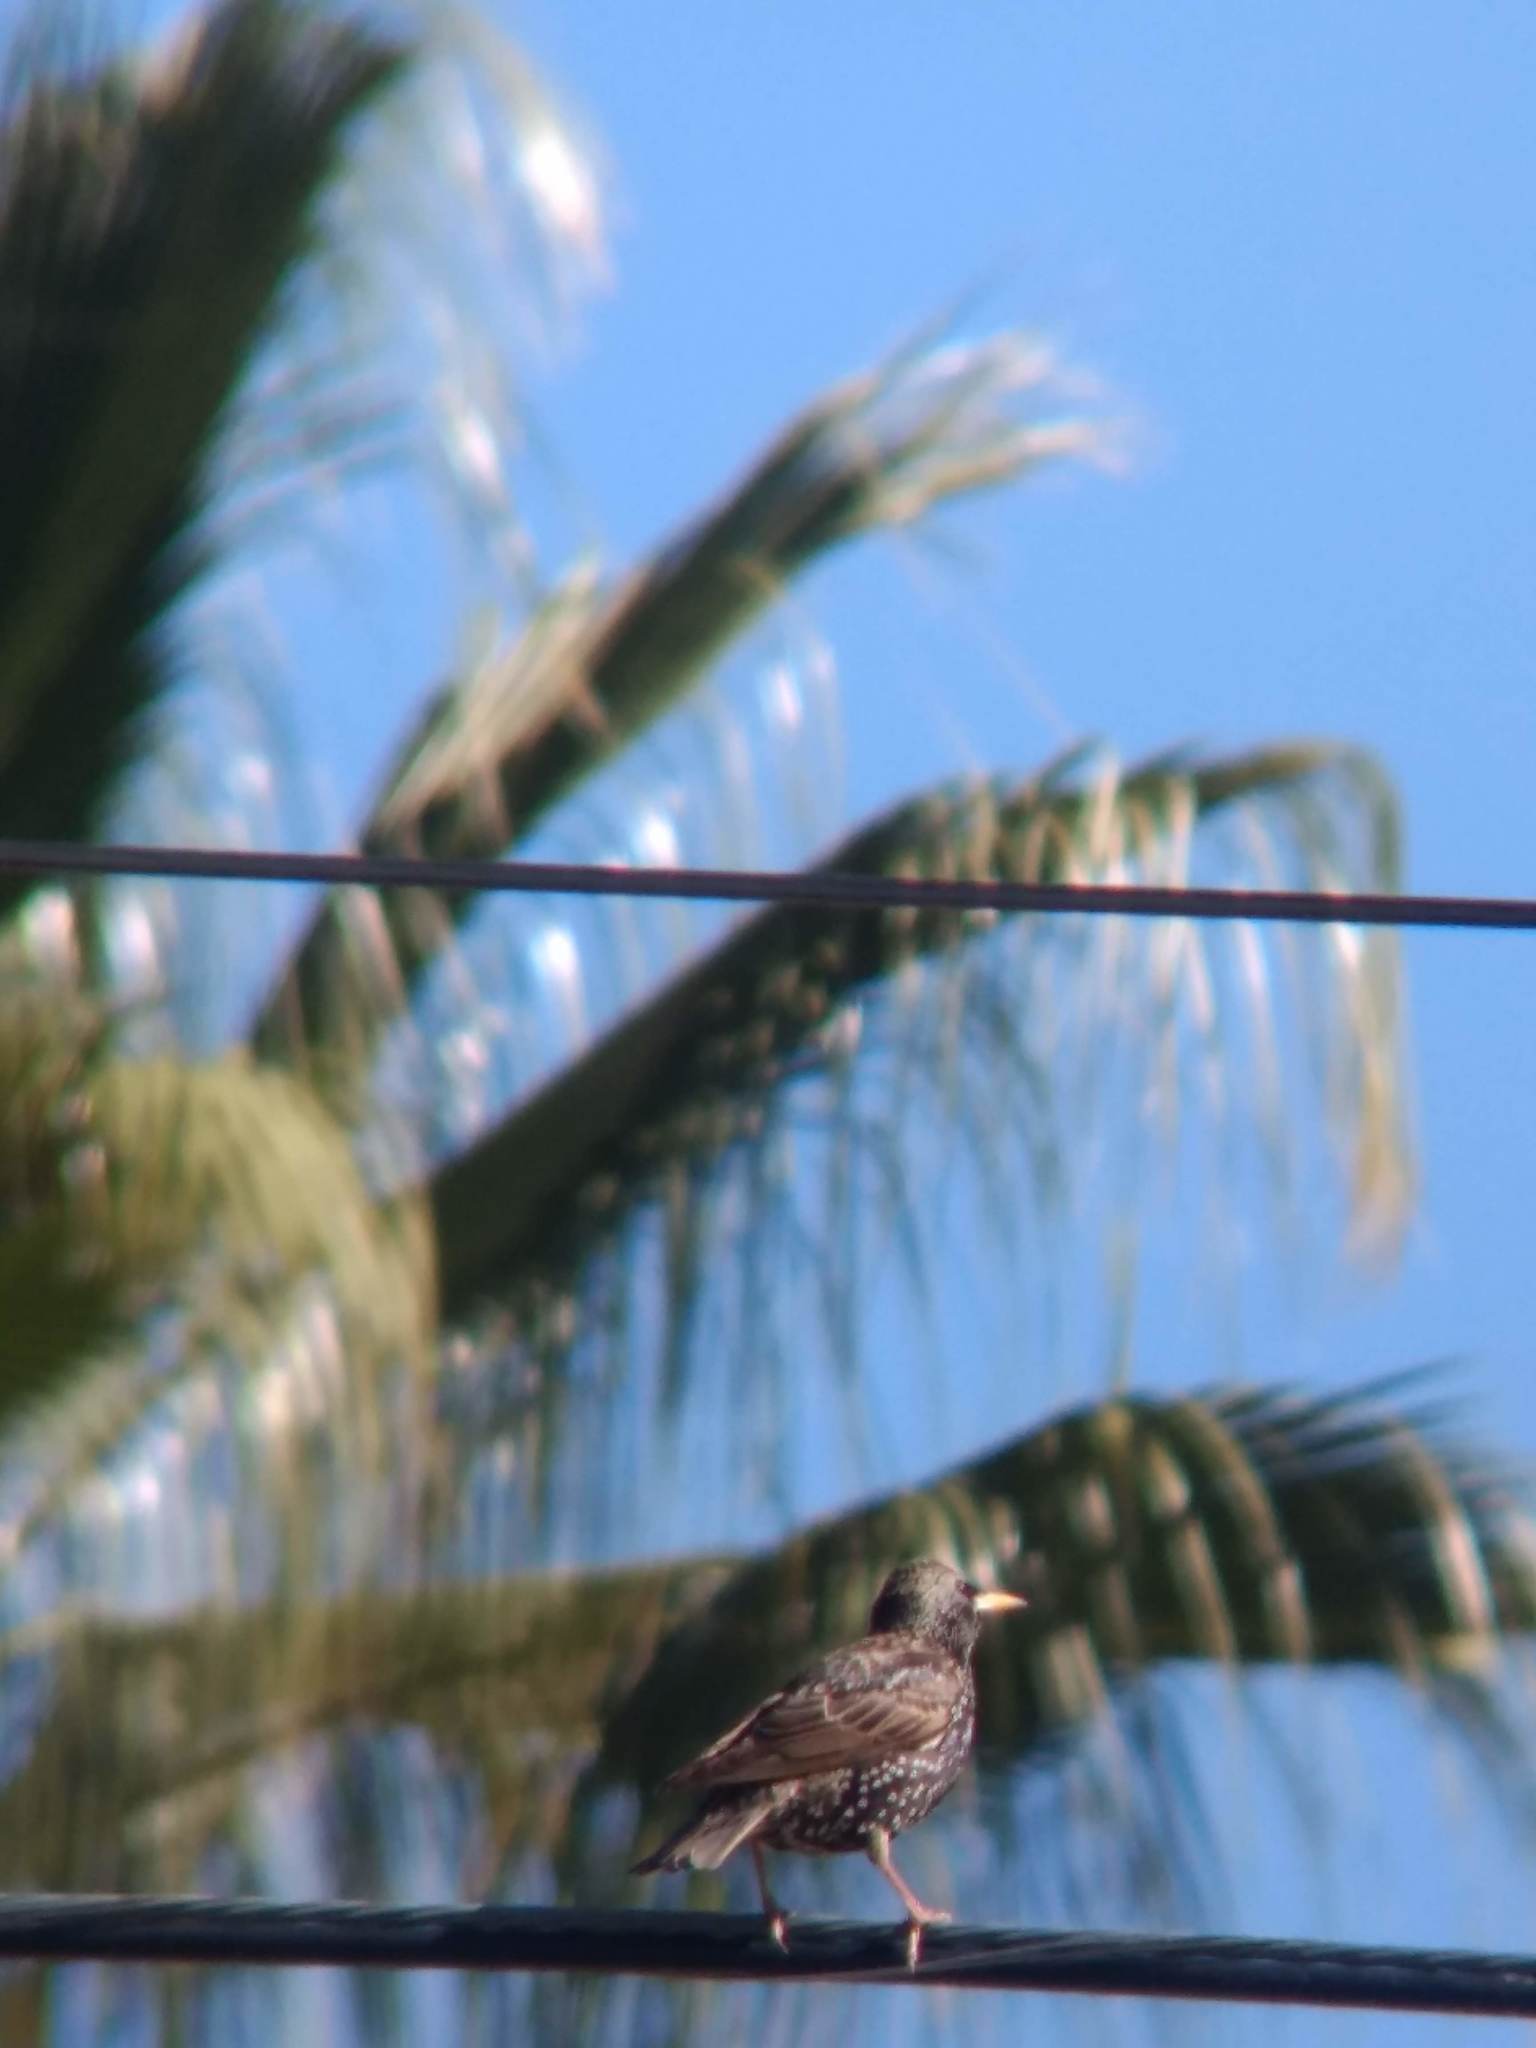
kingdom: Animalia
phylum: Chordata
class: Aves
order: Passeriformes
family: Sturnidae
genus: Sturnus
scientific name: Sturnus vulgaris
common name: Common starling
